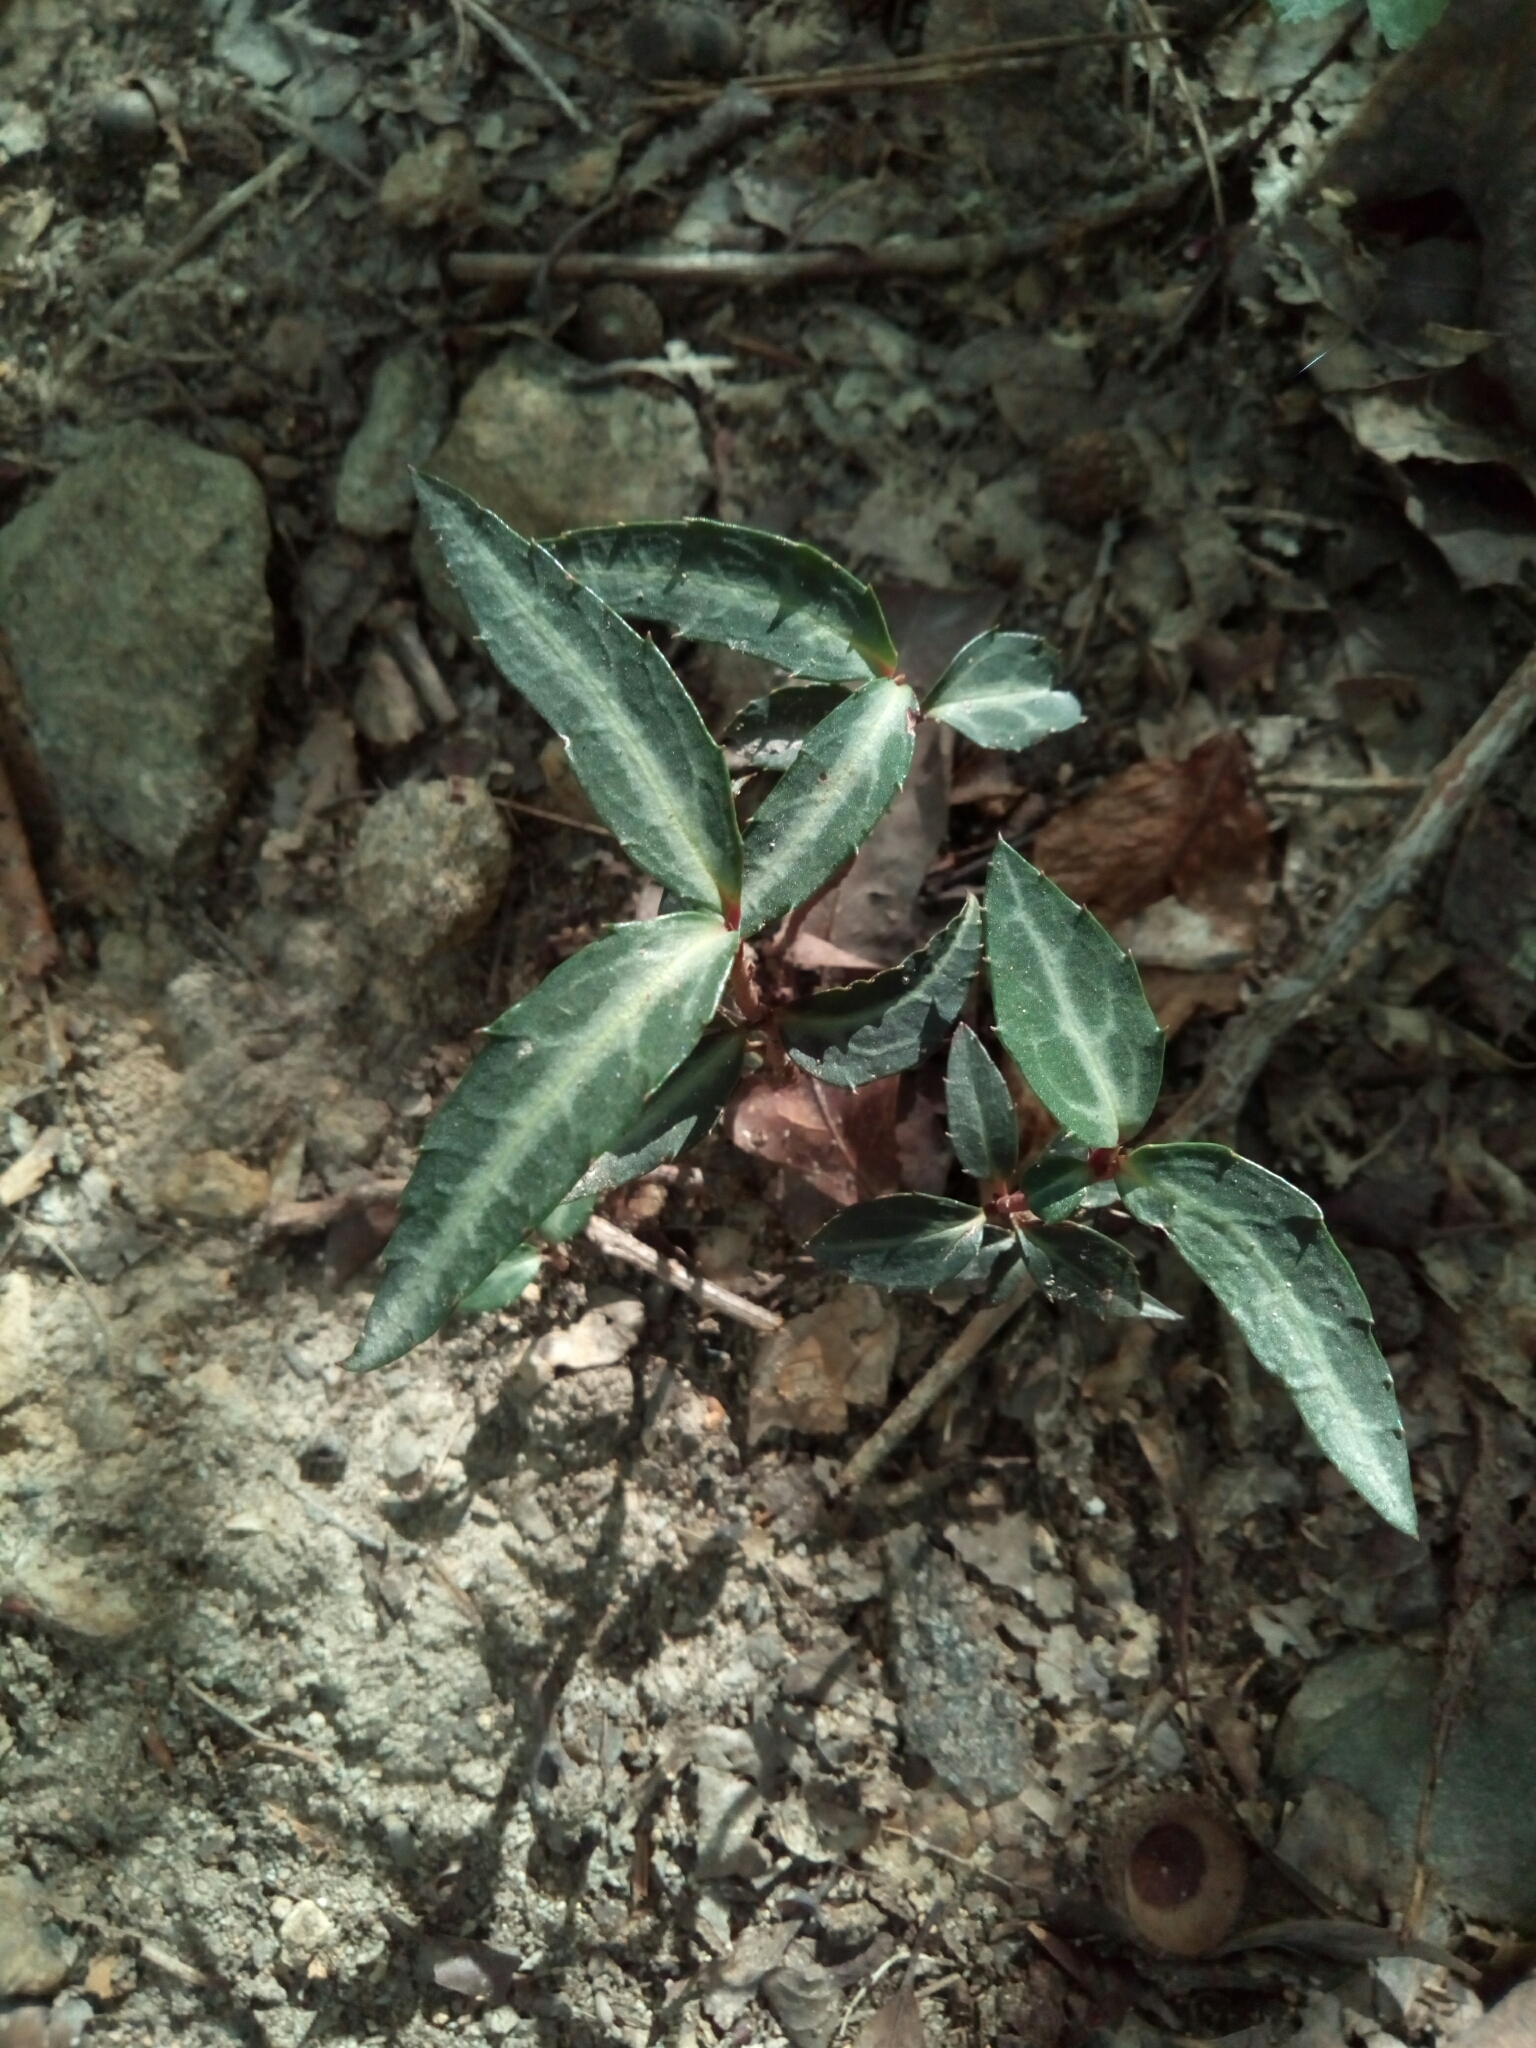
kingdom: Plantae
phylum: Tracheophyta
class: Magnoliopsida
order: Ericales
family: Ericaceae
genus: Chimaphila
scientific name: Chimaphila maculata
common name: Spotted pipsissewa
